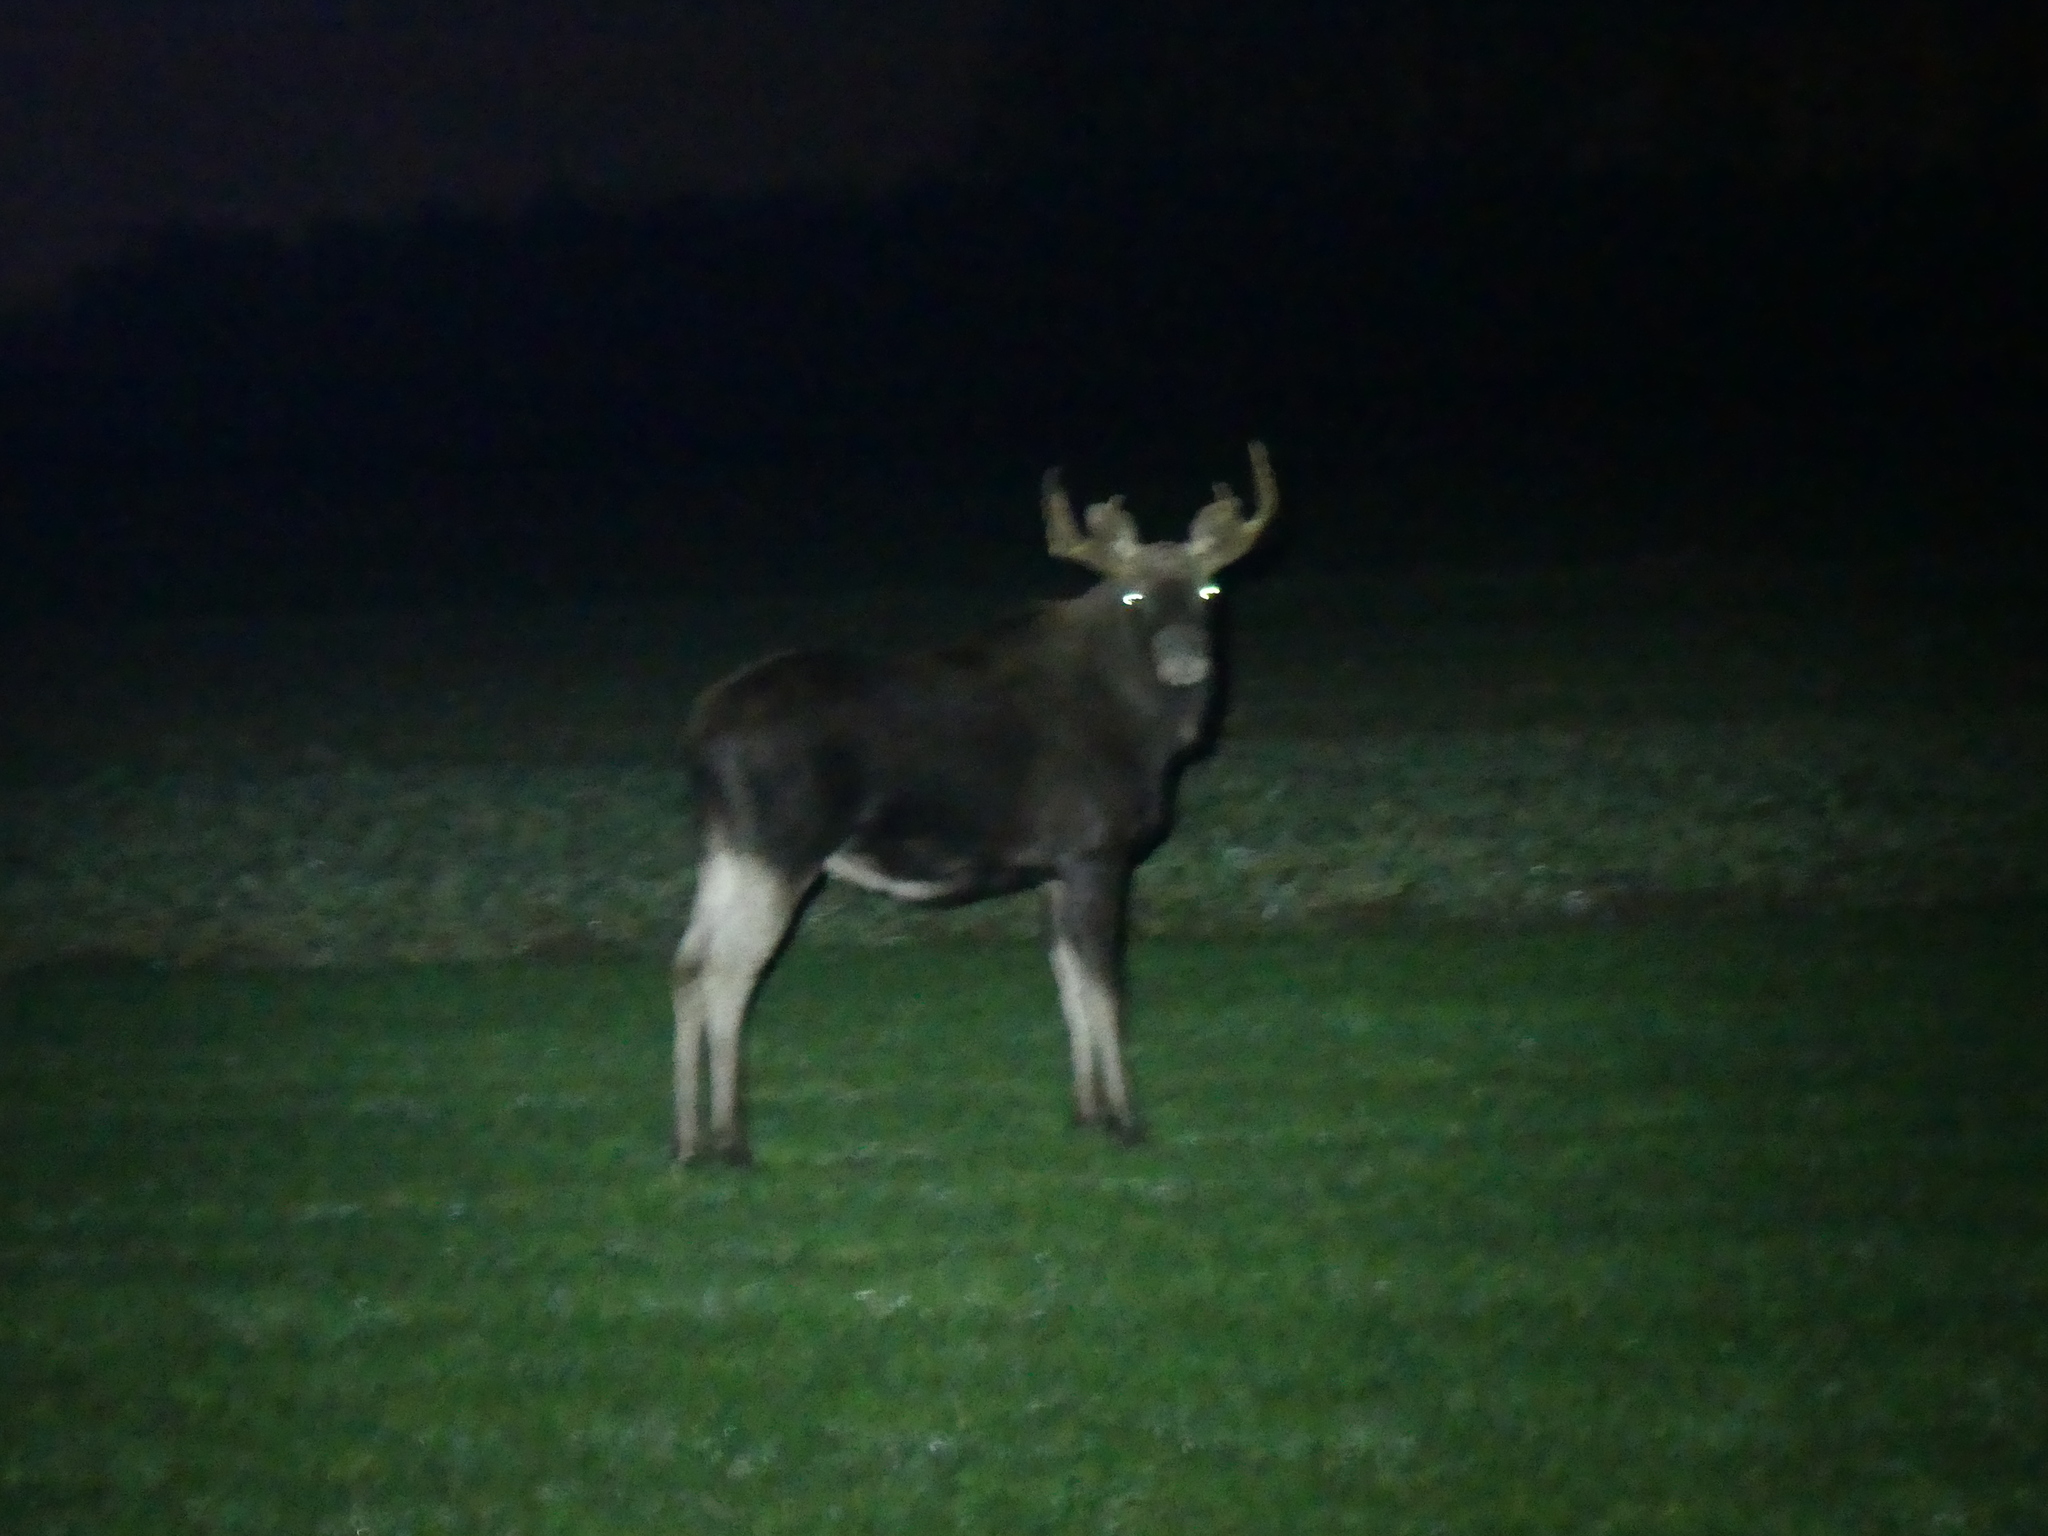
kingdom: Animalia
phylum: Chordata
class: Mammalia
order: Artiodactyla
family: Cervidae
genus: Alces
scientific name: Alces alces
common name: Moose
